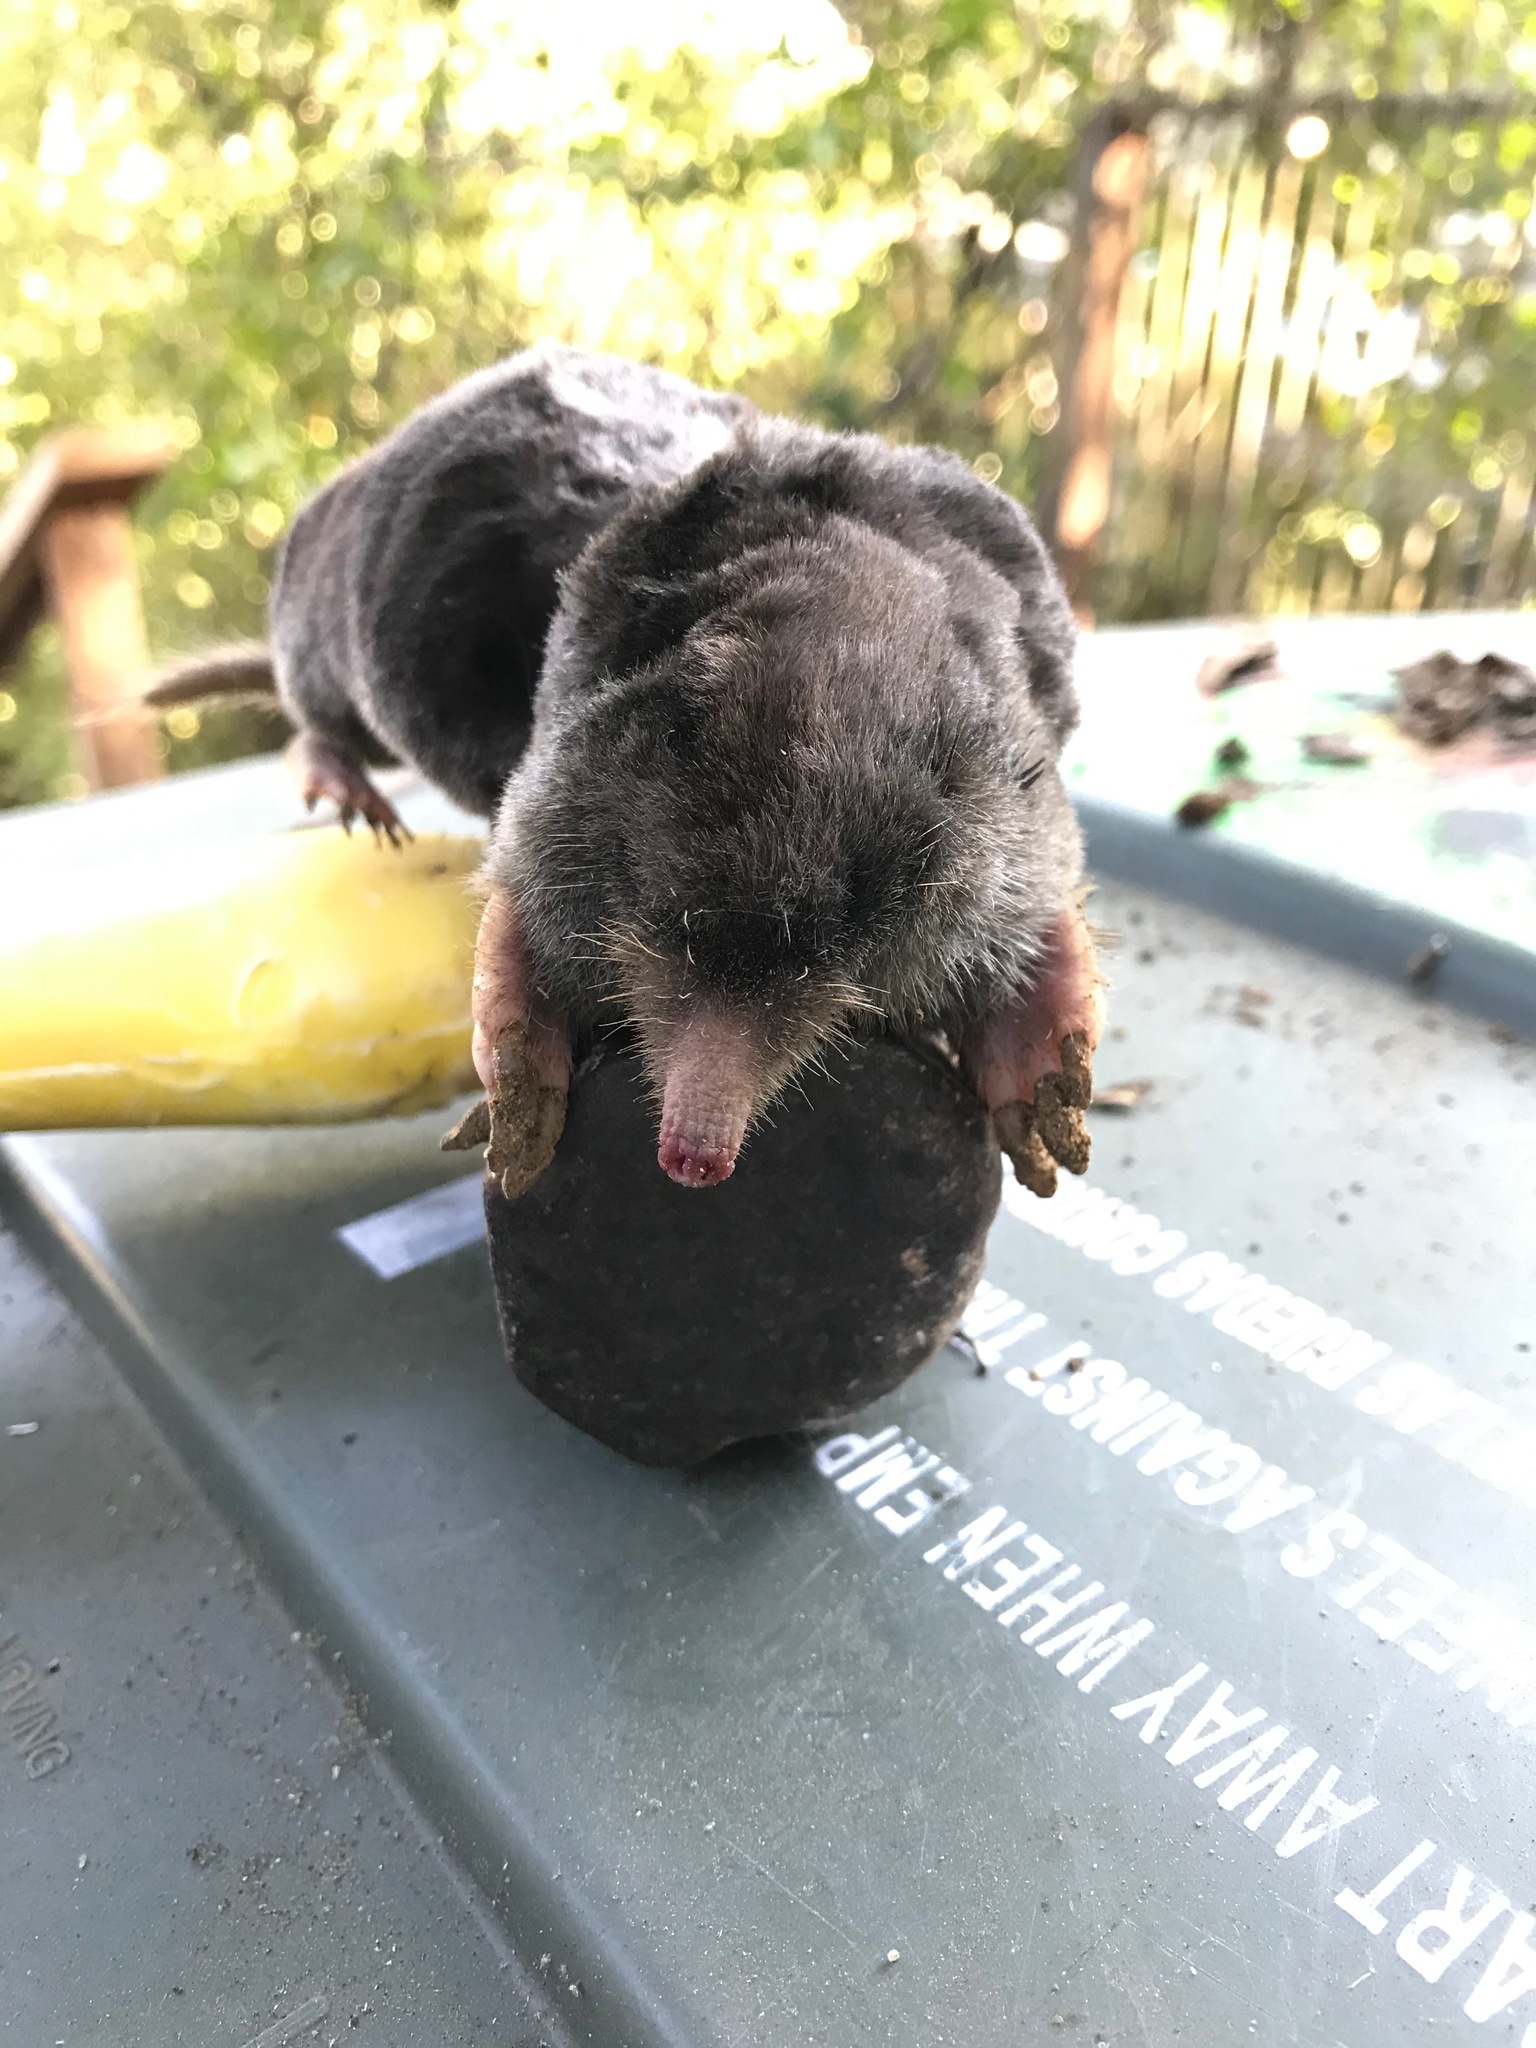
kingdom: Animalia
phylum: Chordata
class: Mammalia
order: Soricomorpha
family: Talpidae
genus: Scapanus
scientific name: Scapanus latimanus
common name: Broad-footed mole
